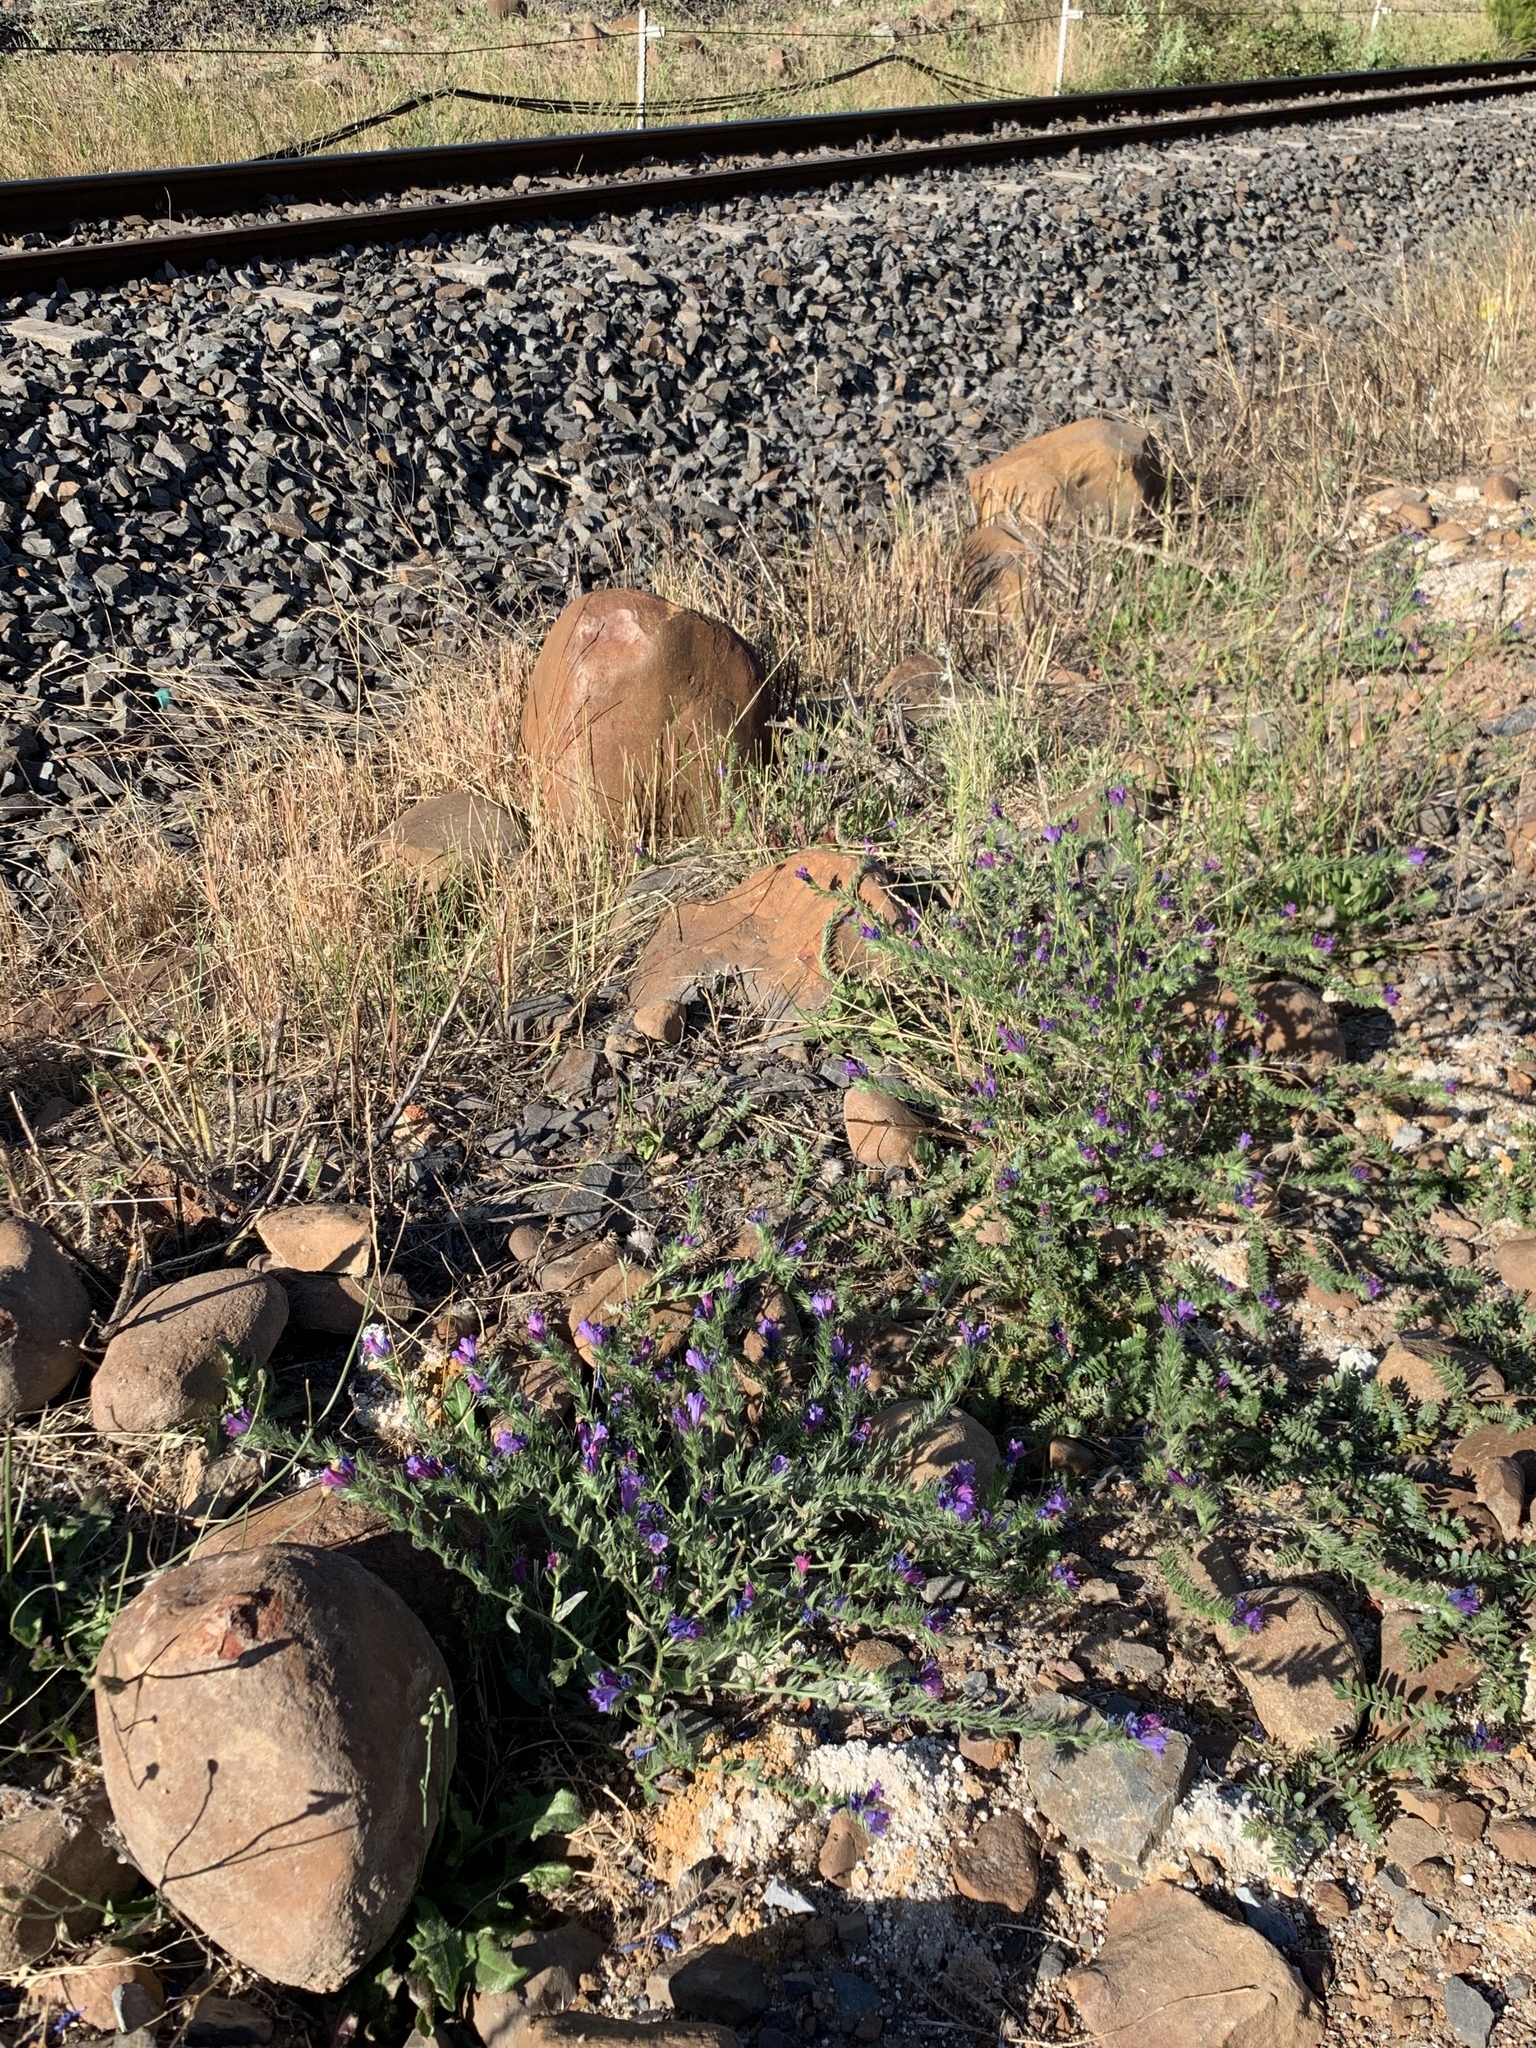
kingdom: Plantae
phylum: Tracheophyta
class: Magnoliopsida
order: Boraginales
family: Boraginaceae
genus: Echium
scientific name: Echium plantagineum
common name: Purple viper's-bugloss
